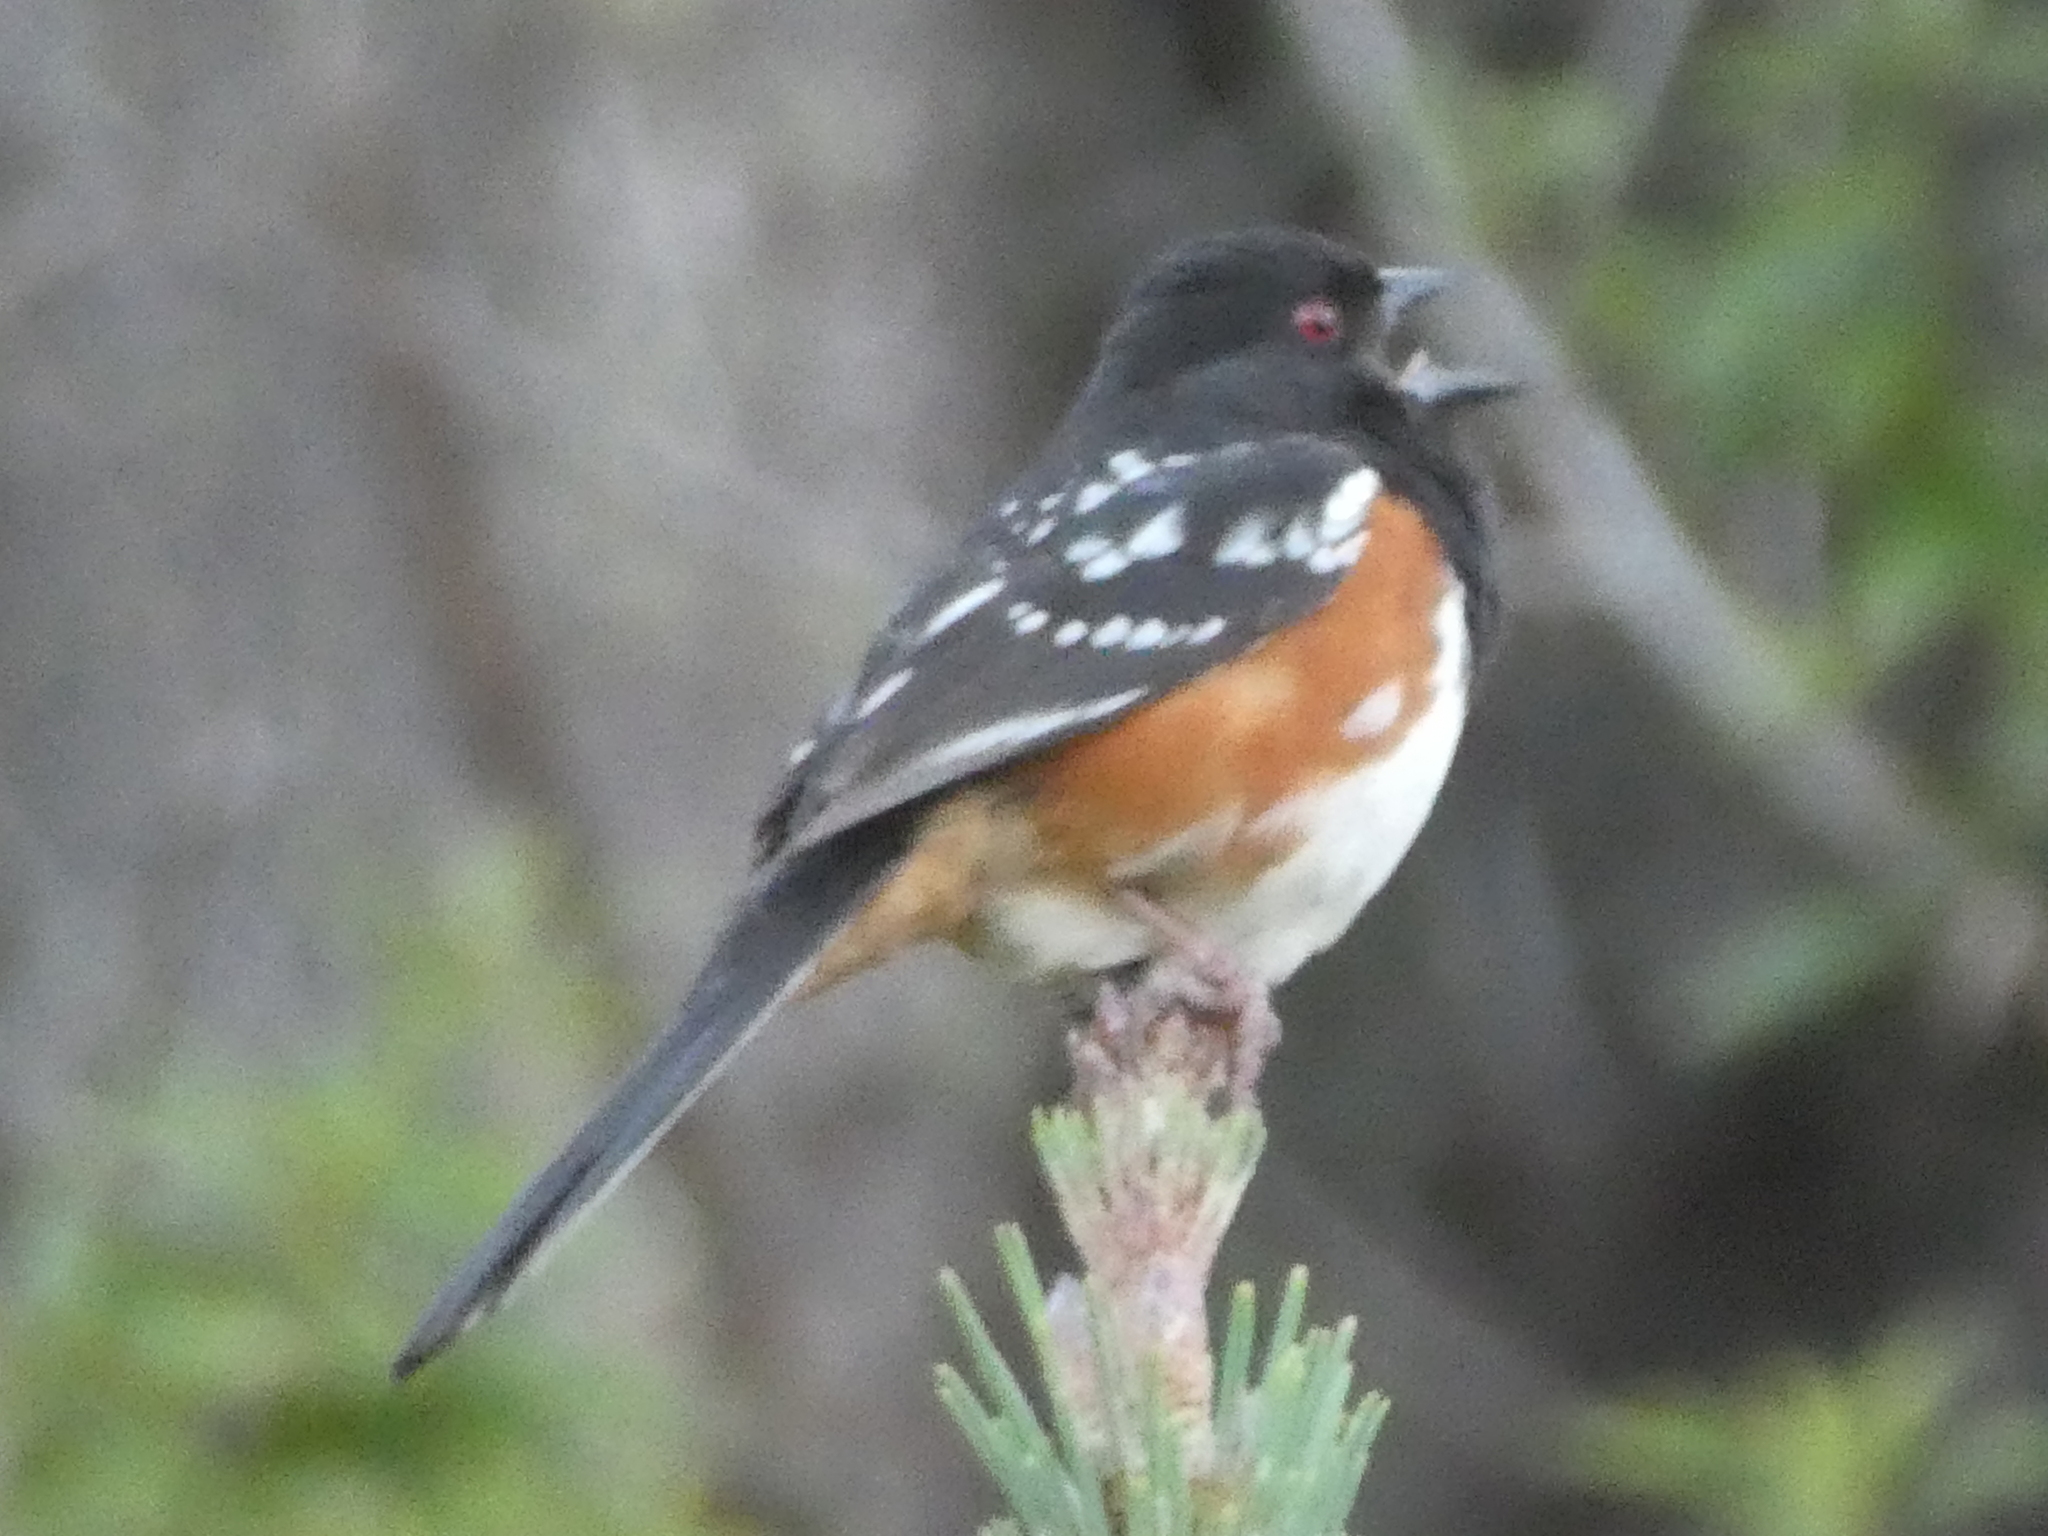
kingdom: Animalia
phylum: Chordata
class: Aves
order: Passeriformes
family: Passerellidae
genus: Pipilo
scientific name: Pipilo maculatus
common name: Spotted towhee
